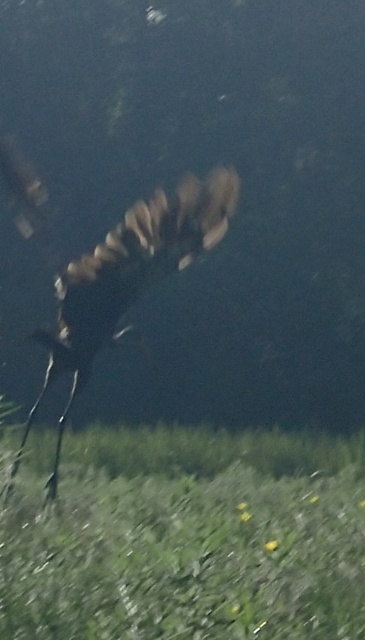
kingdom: Animalia
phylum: Chordata
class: Aves
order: Gruiformes
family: Aramidae
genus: Aramus
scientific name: Aramus guarauna
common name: Limpkin
